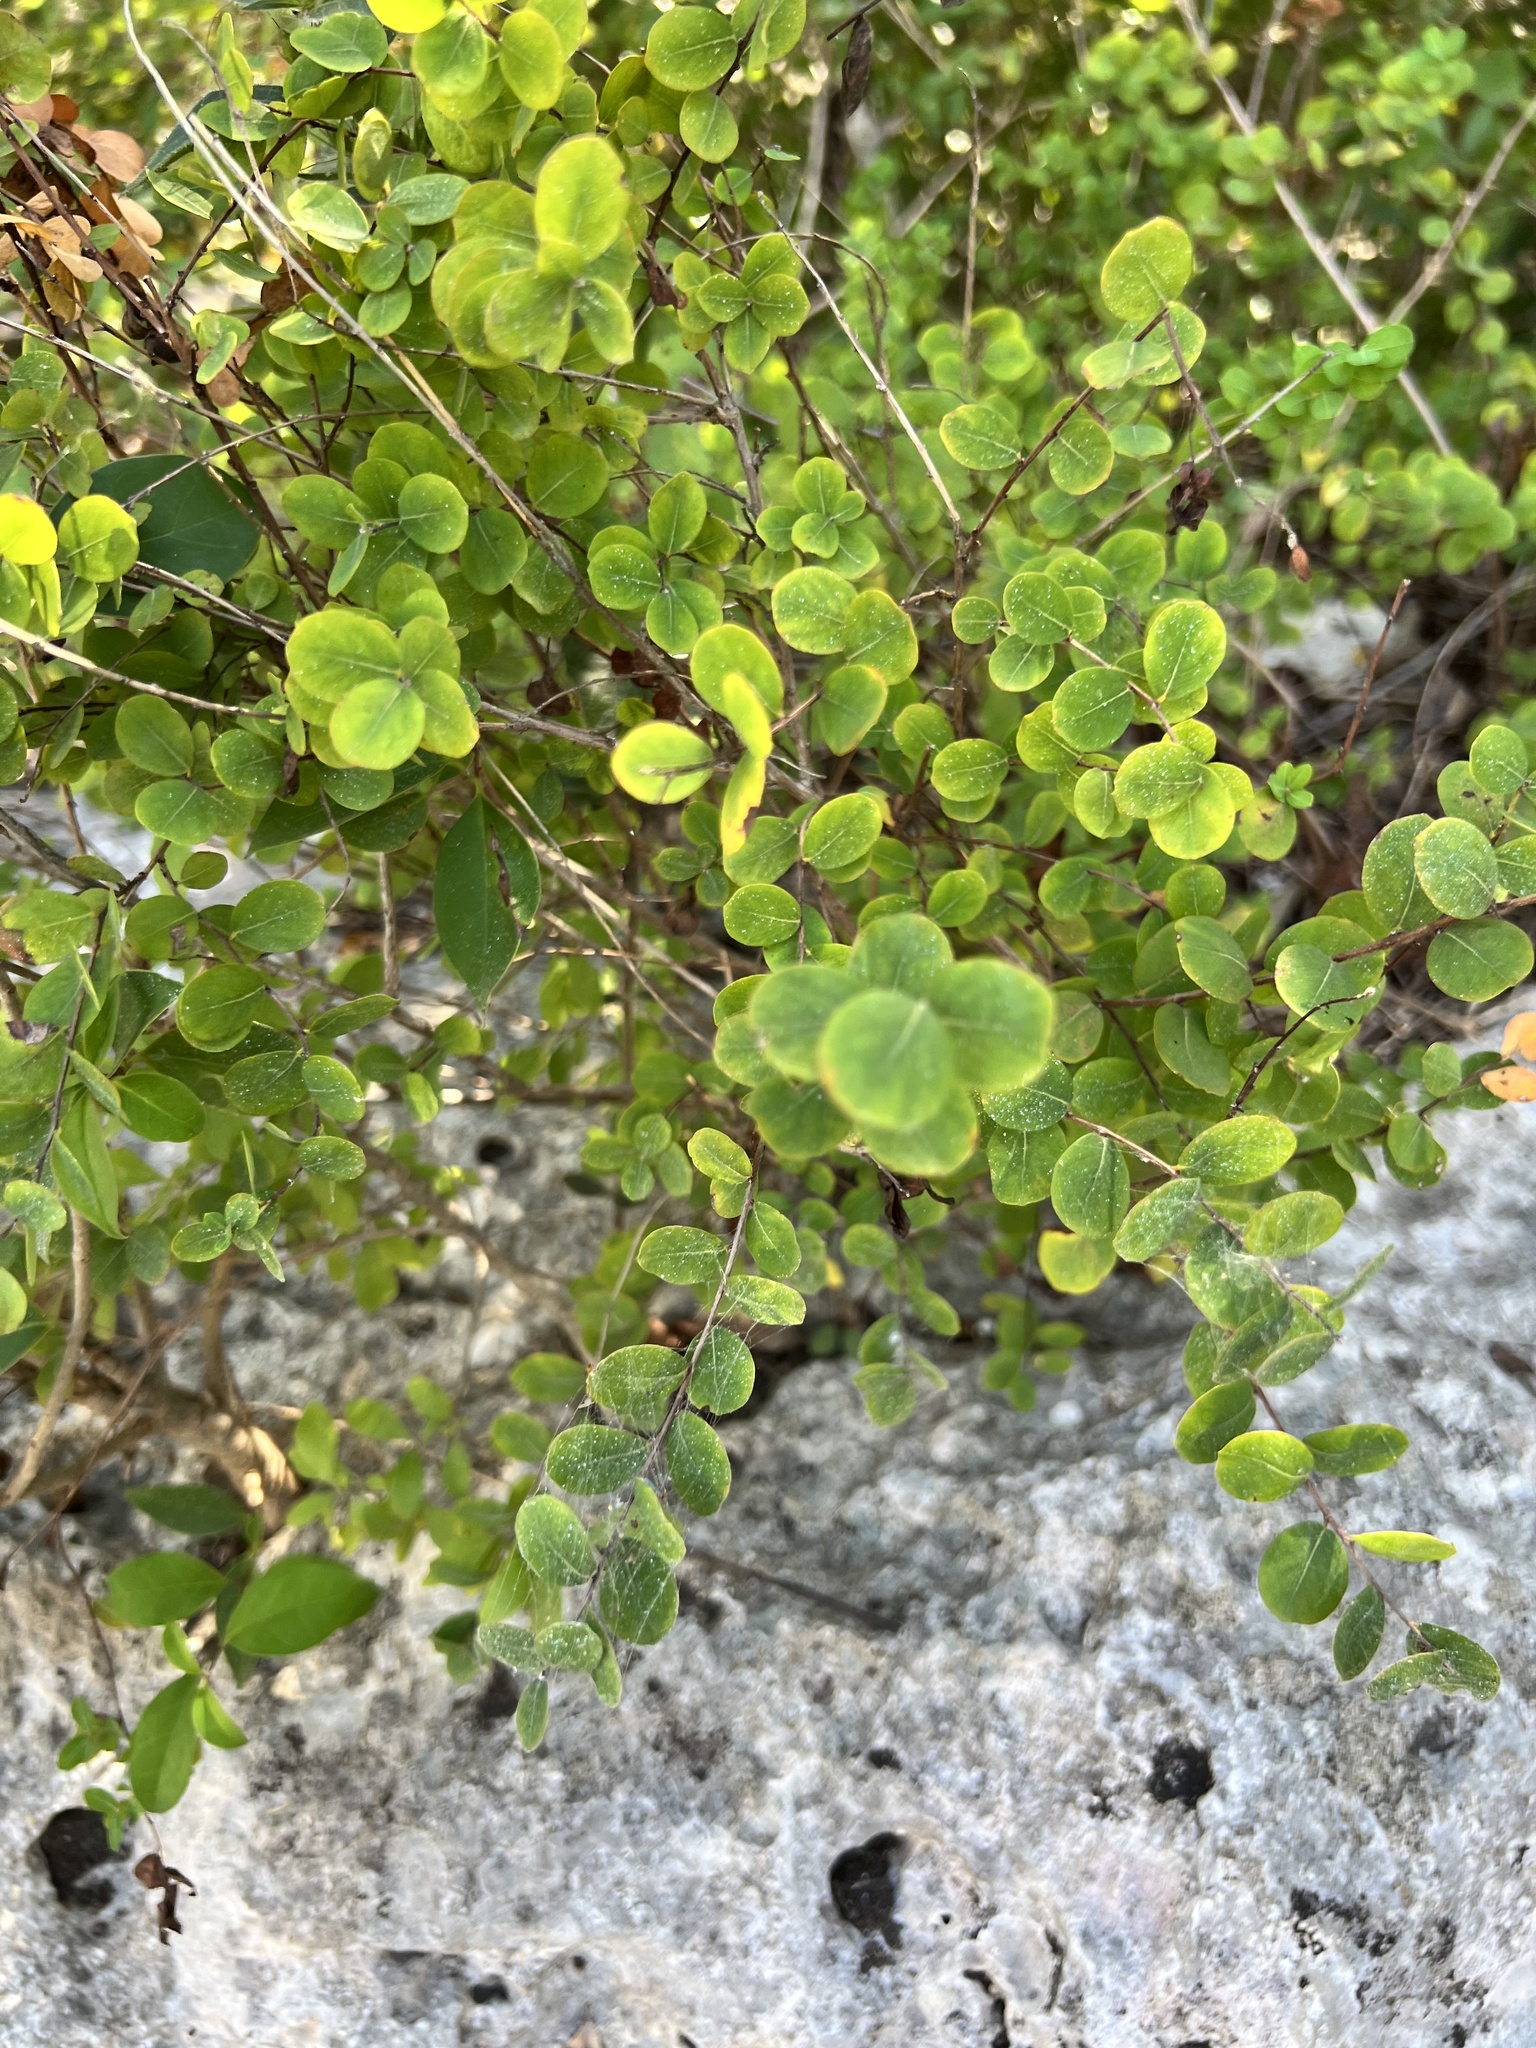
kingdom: Plantae
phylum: Tracheophyta
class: Magnoliopsida
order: Malpighiales
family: Phyllanthaceae
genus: Phyllanthopsis
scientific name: Phyllanthopsis phyllanthoides
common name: Missouri maidenbush
